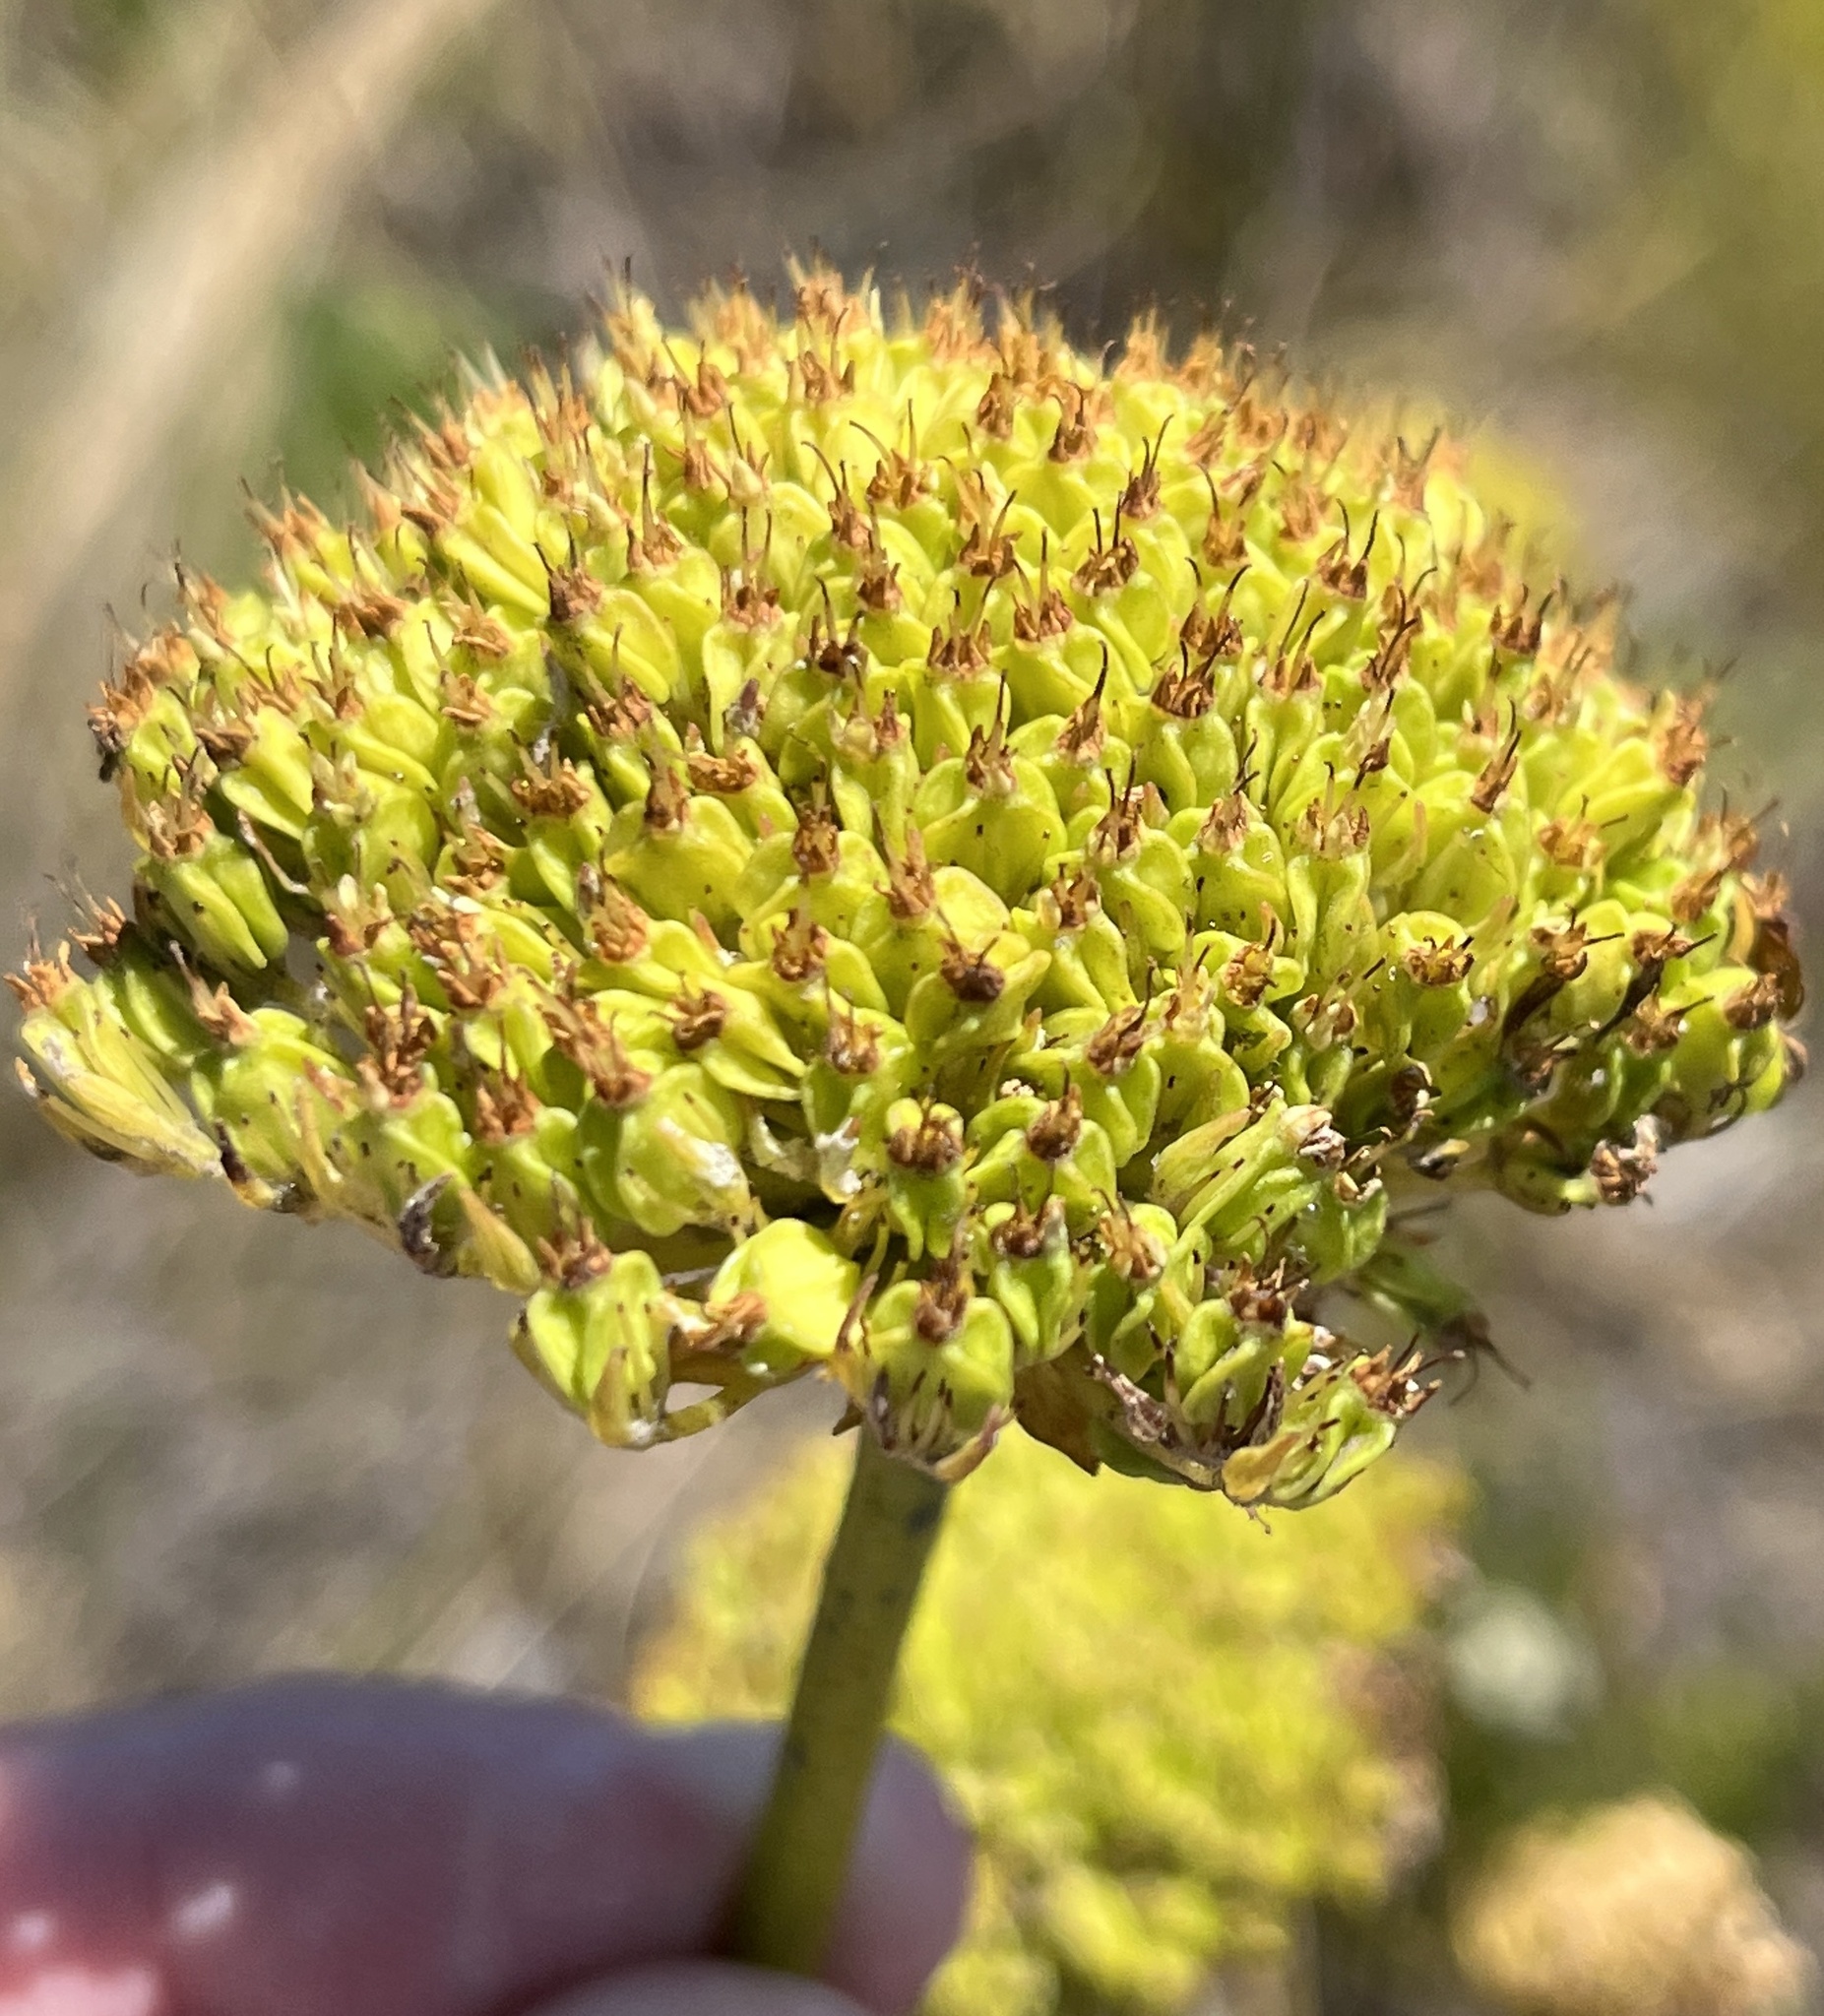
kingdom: Plantae
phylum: Tracheophyta
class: Magnoliopsida
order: Apiales
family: Apiaceae
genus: Hermas
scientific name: Hermas villosa
